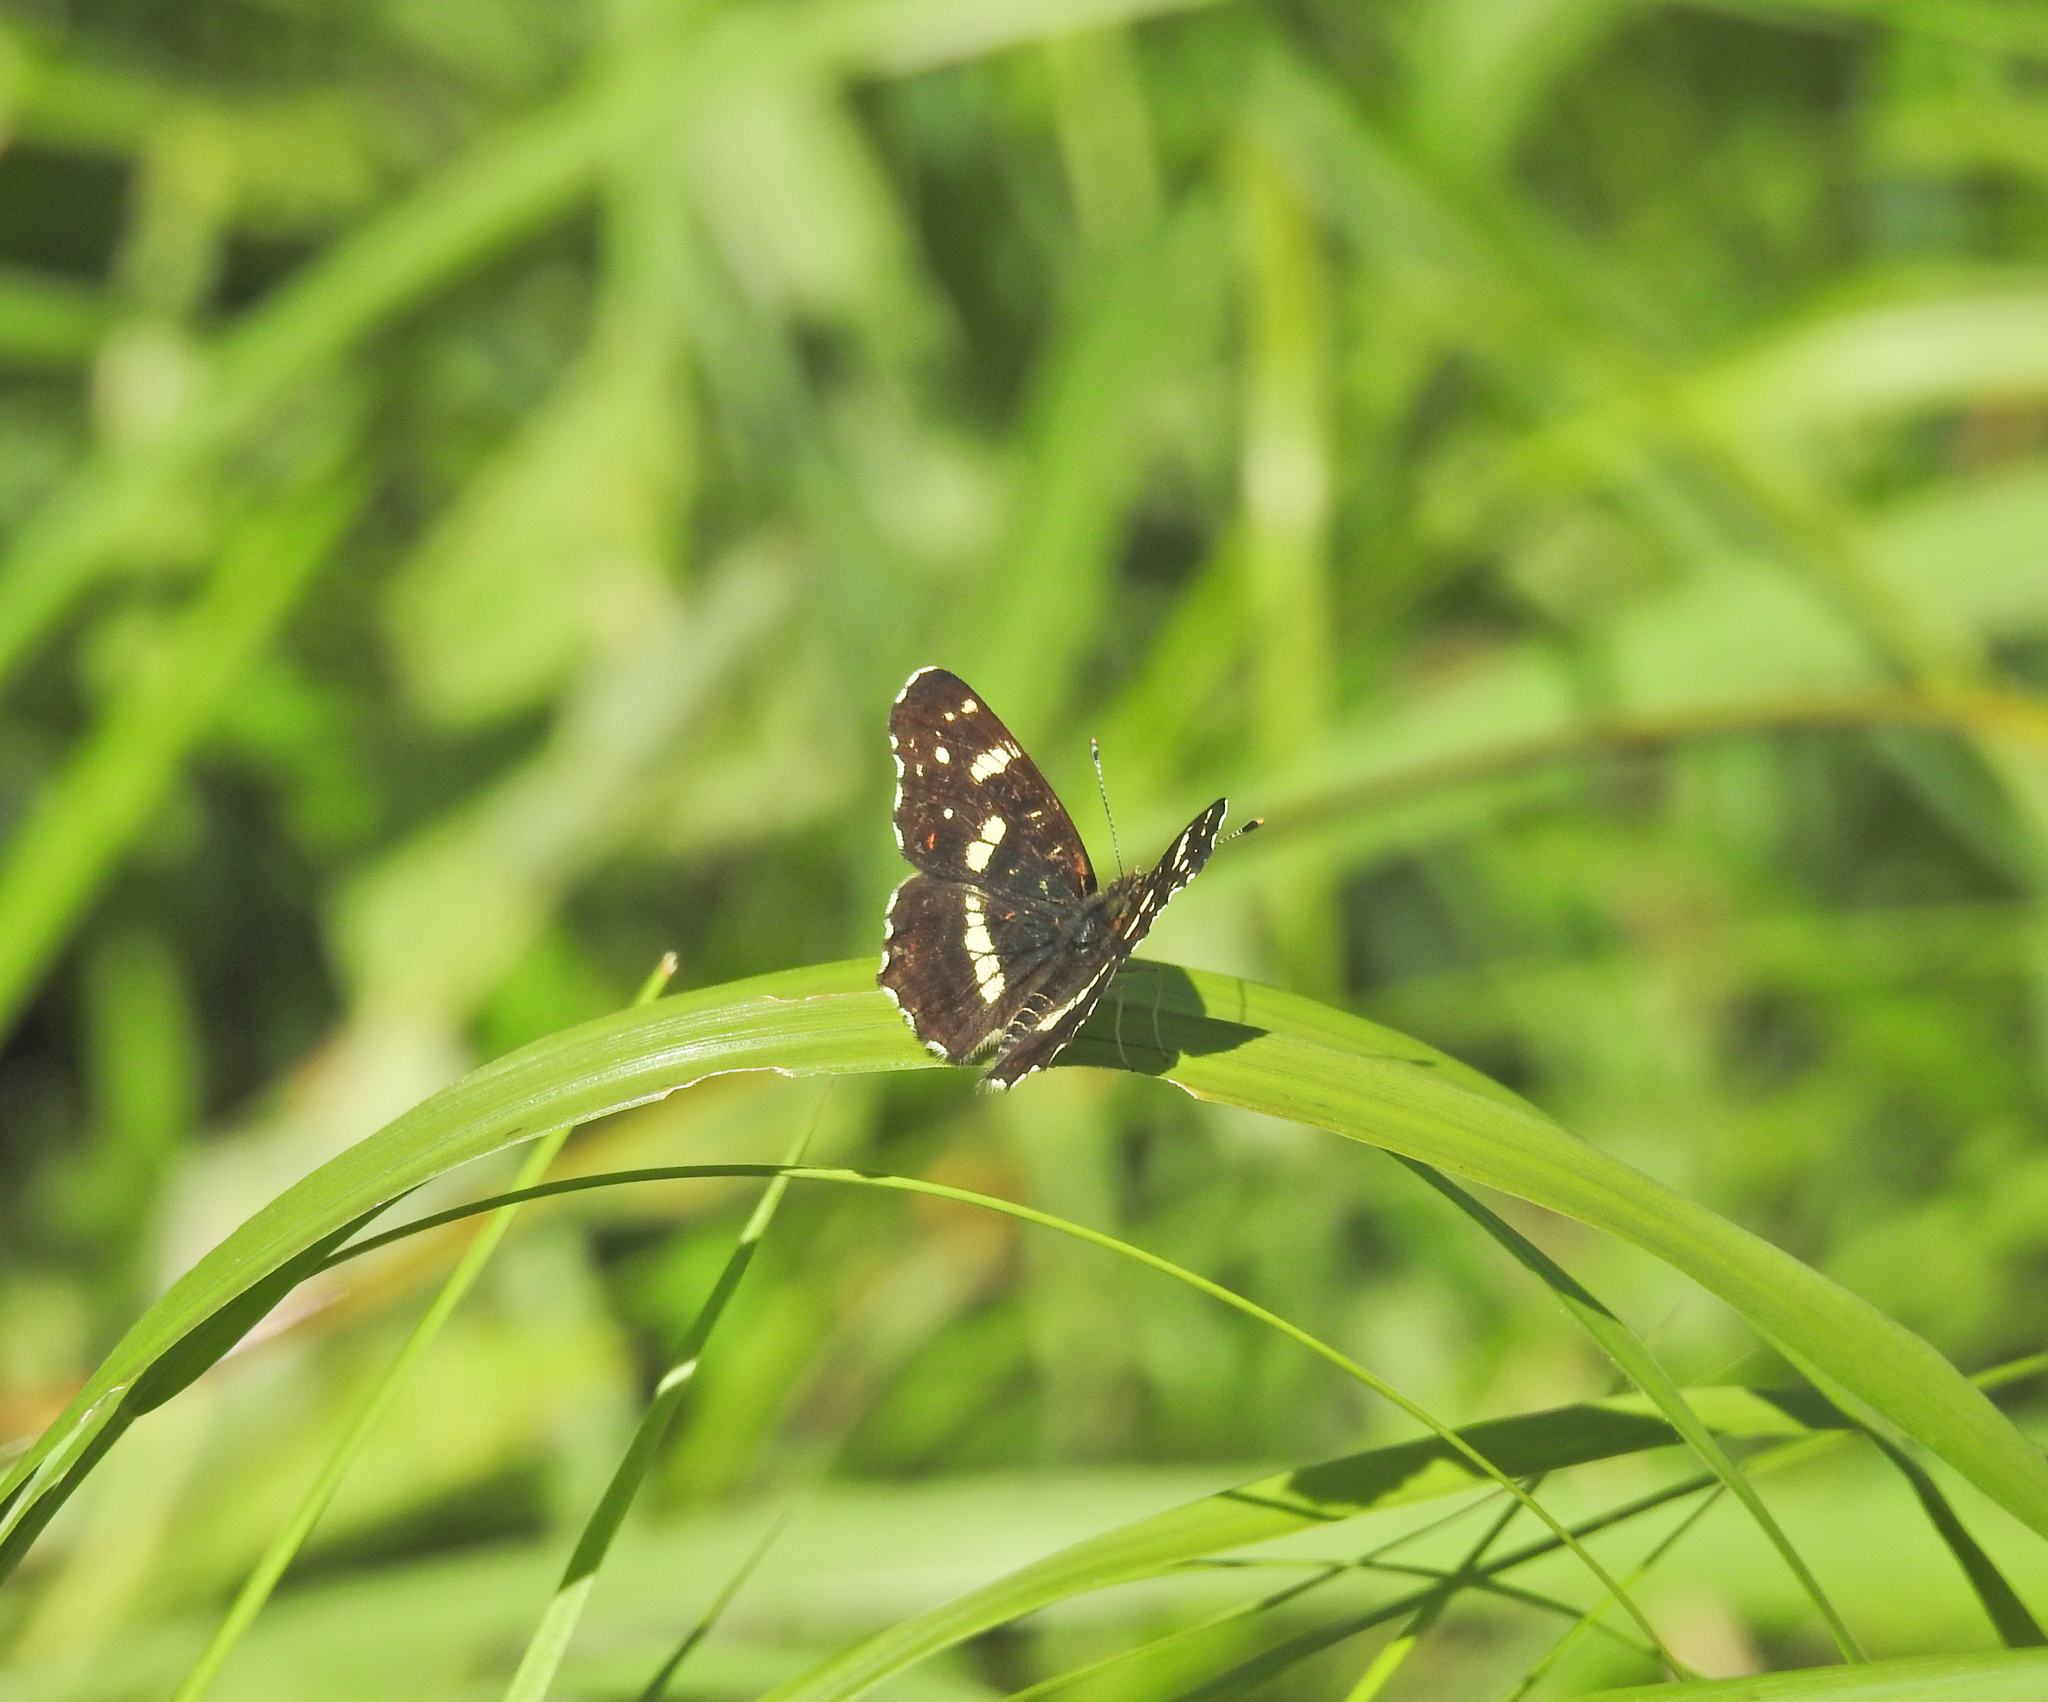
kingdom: Animalia
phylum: Arthropoda
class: Insecta
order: Lepidoptera
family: Nymphalidae
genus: Araschnia
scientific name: Araschnia levana
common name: Map butterfly
